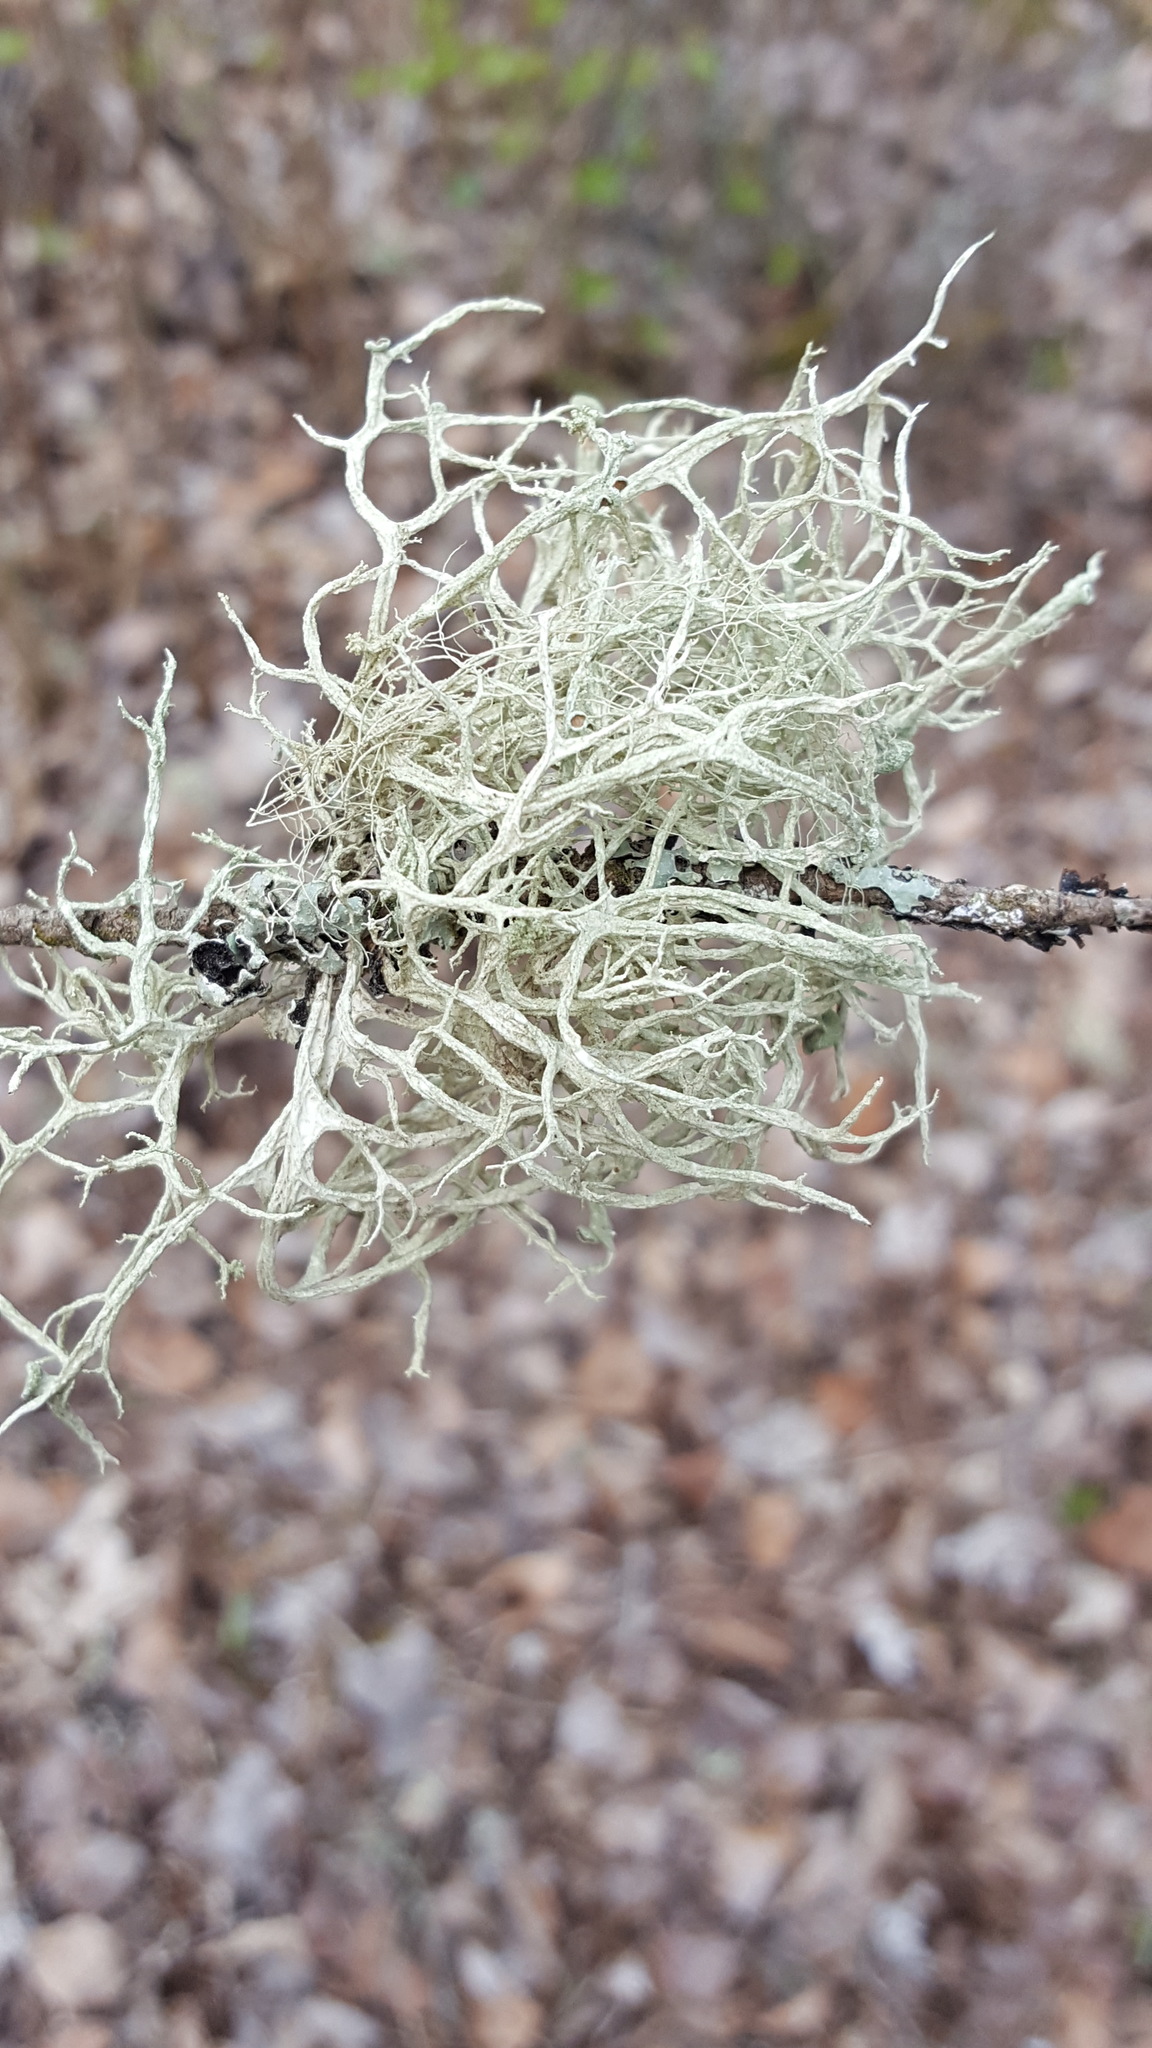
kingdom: Fungi
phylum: Ascomycota
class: Lecanoromycetes
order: Lecanorales
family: Parmeliaceae
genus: Evernia
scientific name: Evernia mesomorpha
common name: Boreal oak moss lichen
